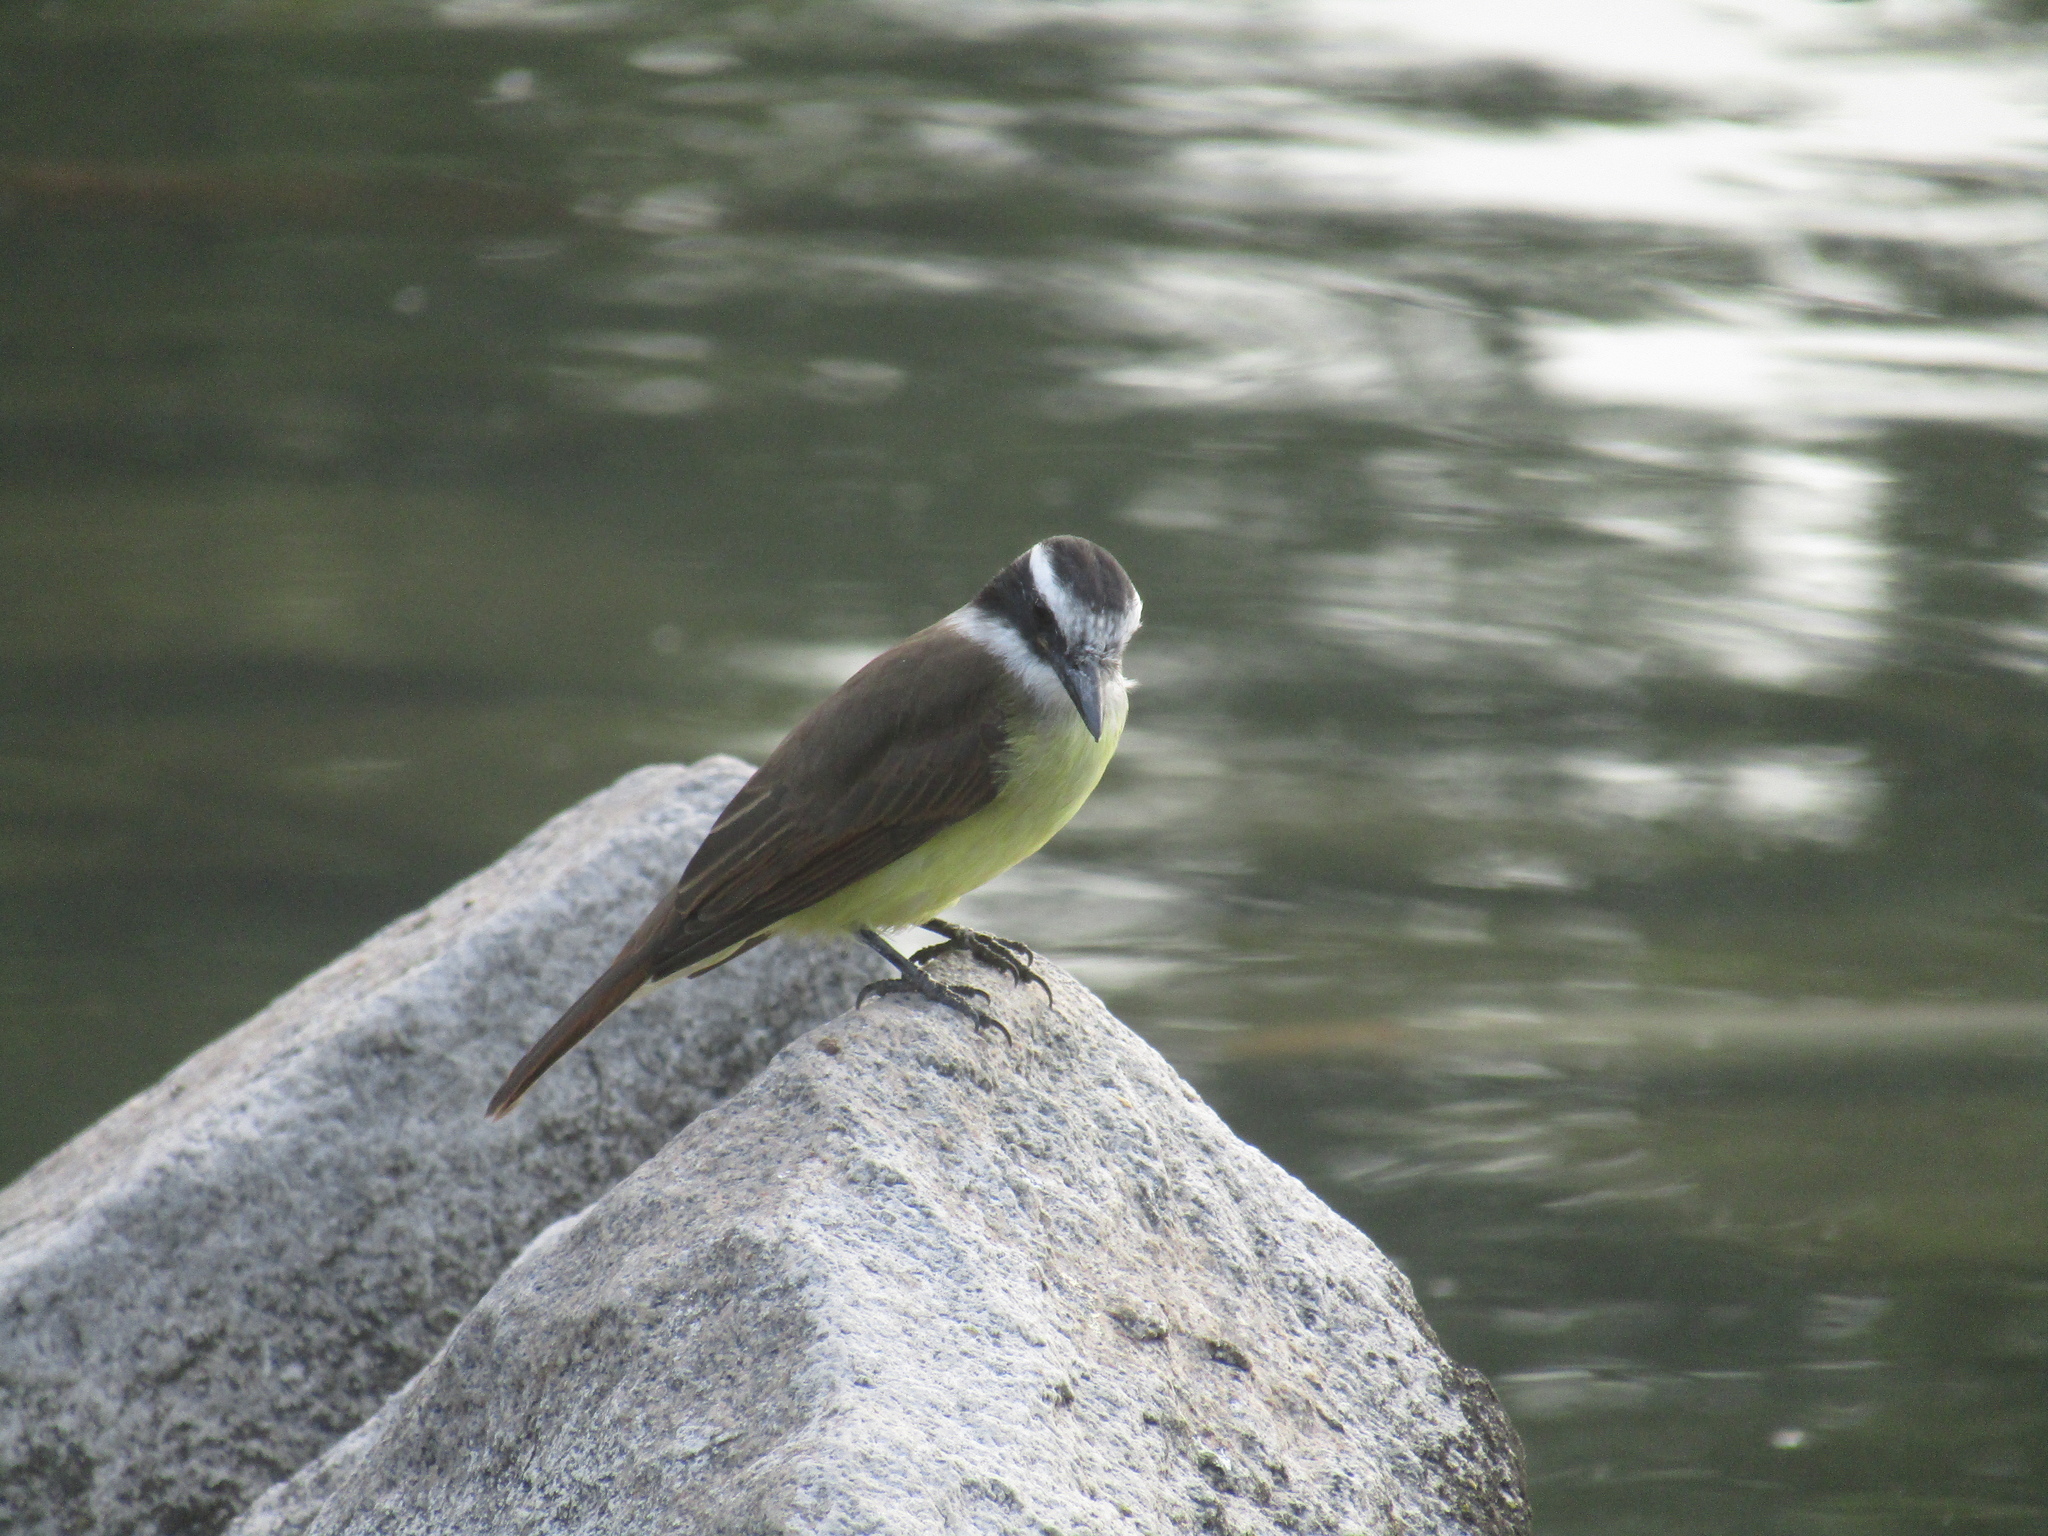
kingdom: Animalia
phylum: Chordata
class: Aves
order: Passeriformes
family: Tyrannidae
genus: Pitangus
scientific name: Pitangus sulphuratus
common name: Great kiskadee
